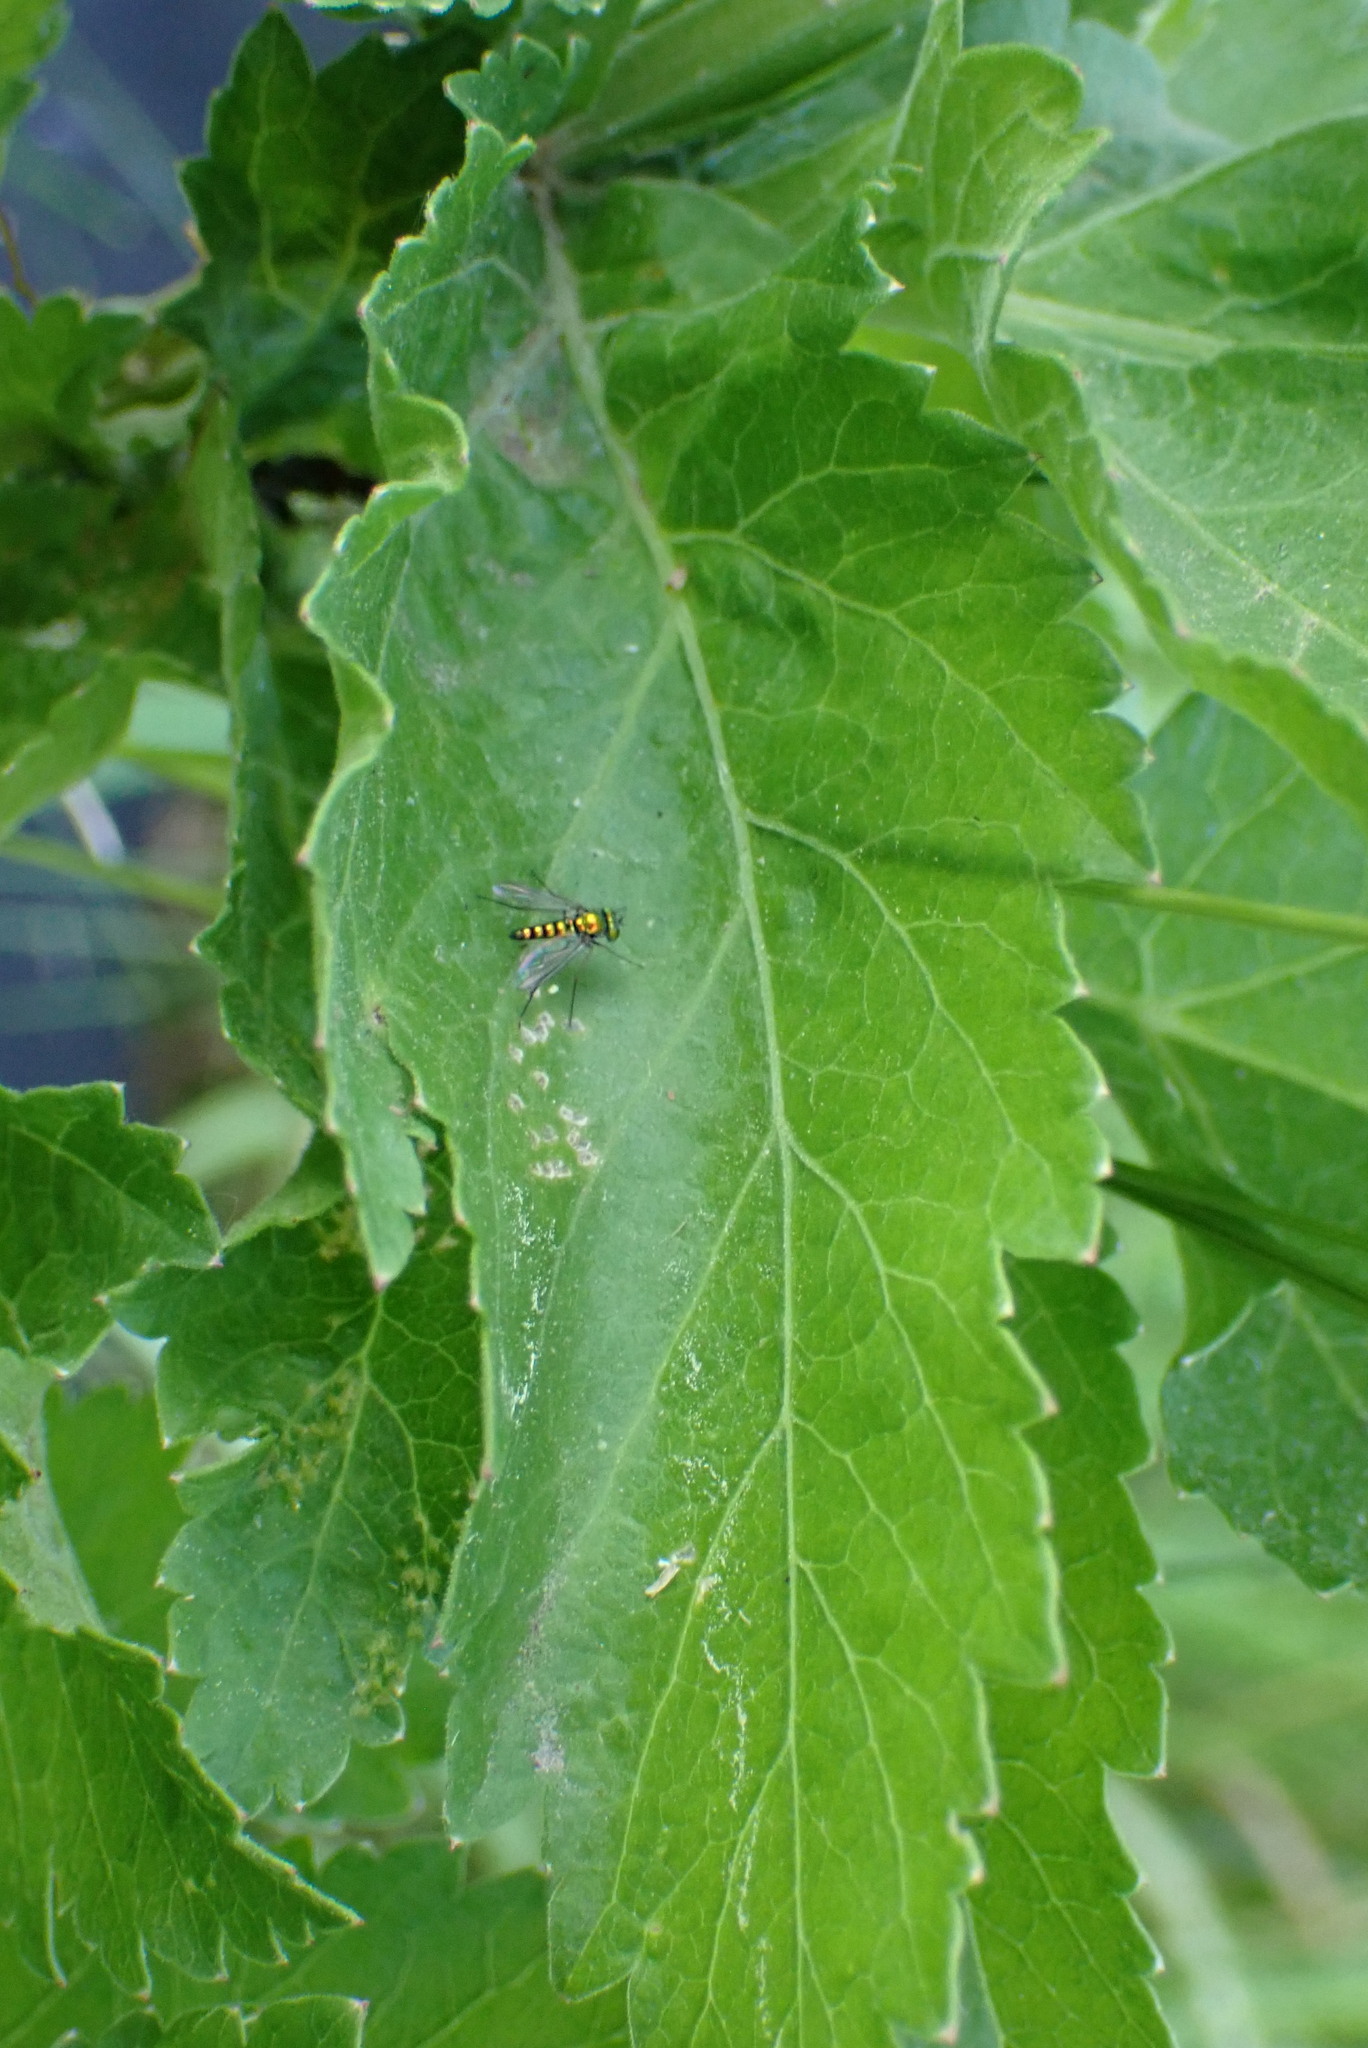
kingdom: Animalia
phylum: Arthropoda
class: Insecta
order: Diptera
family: Dolichopodidae
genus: Condylostylus
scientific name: Condylostylus
